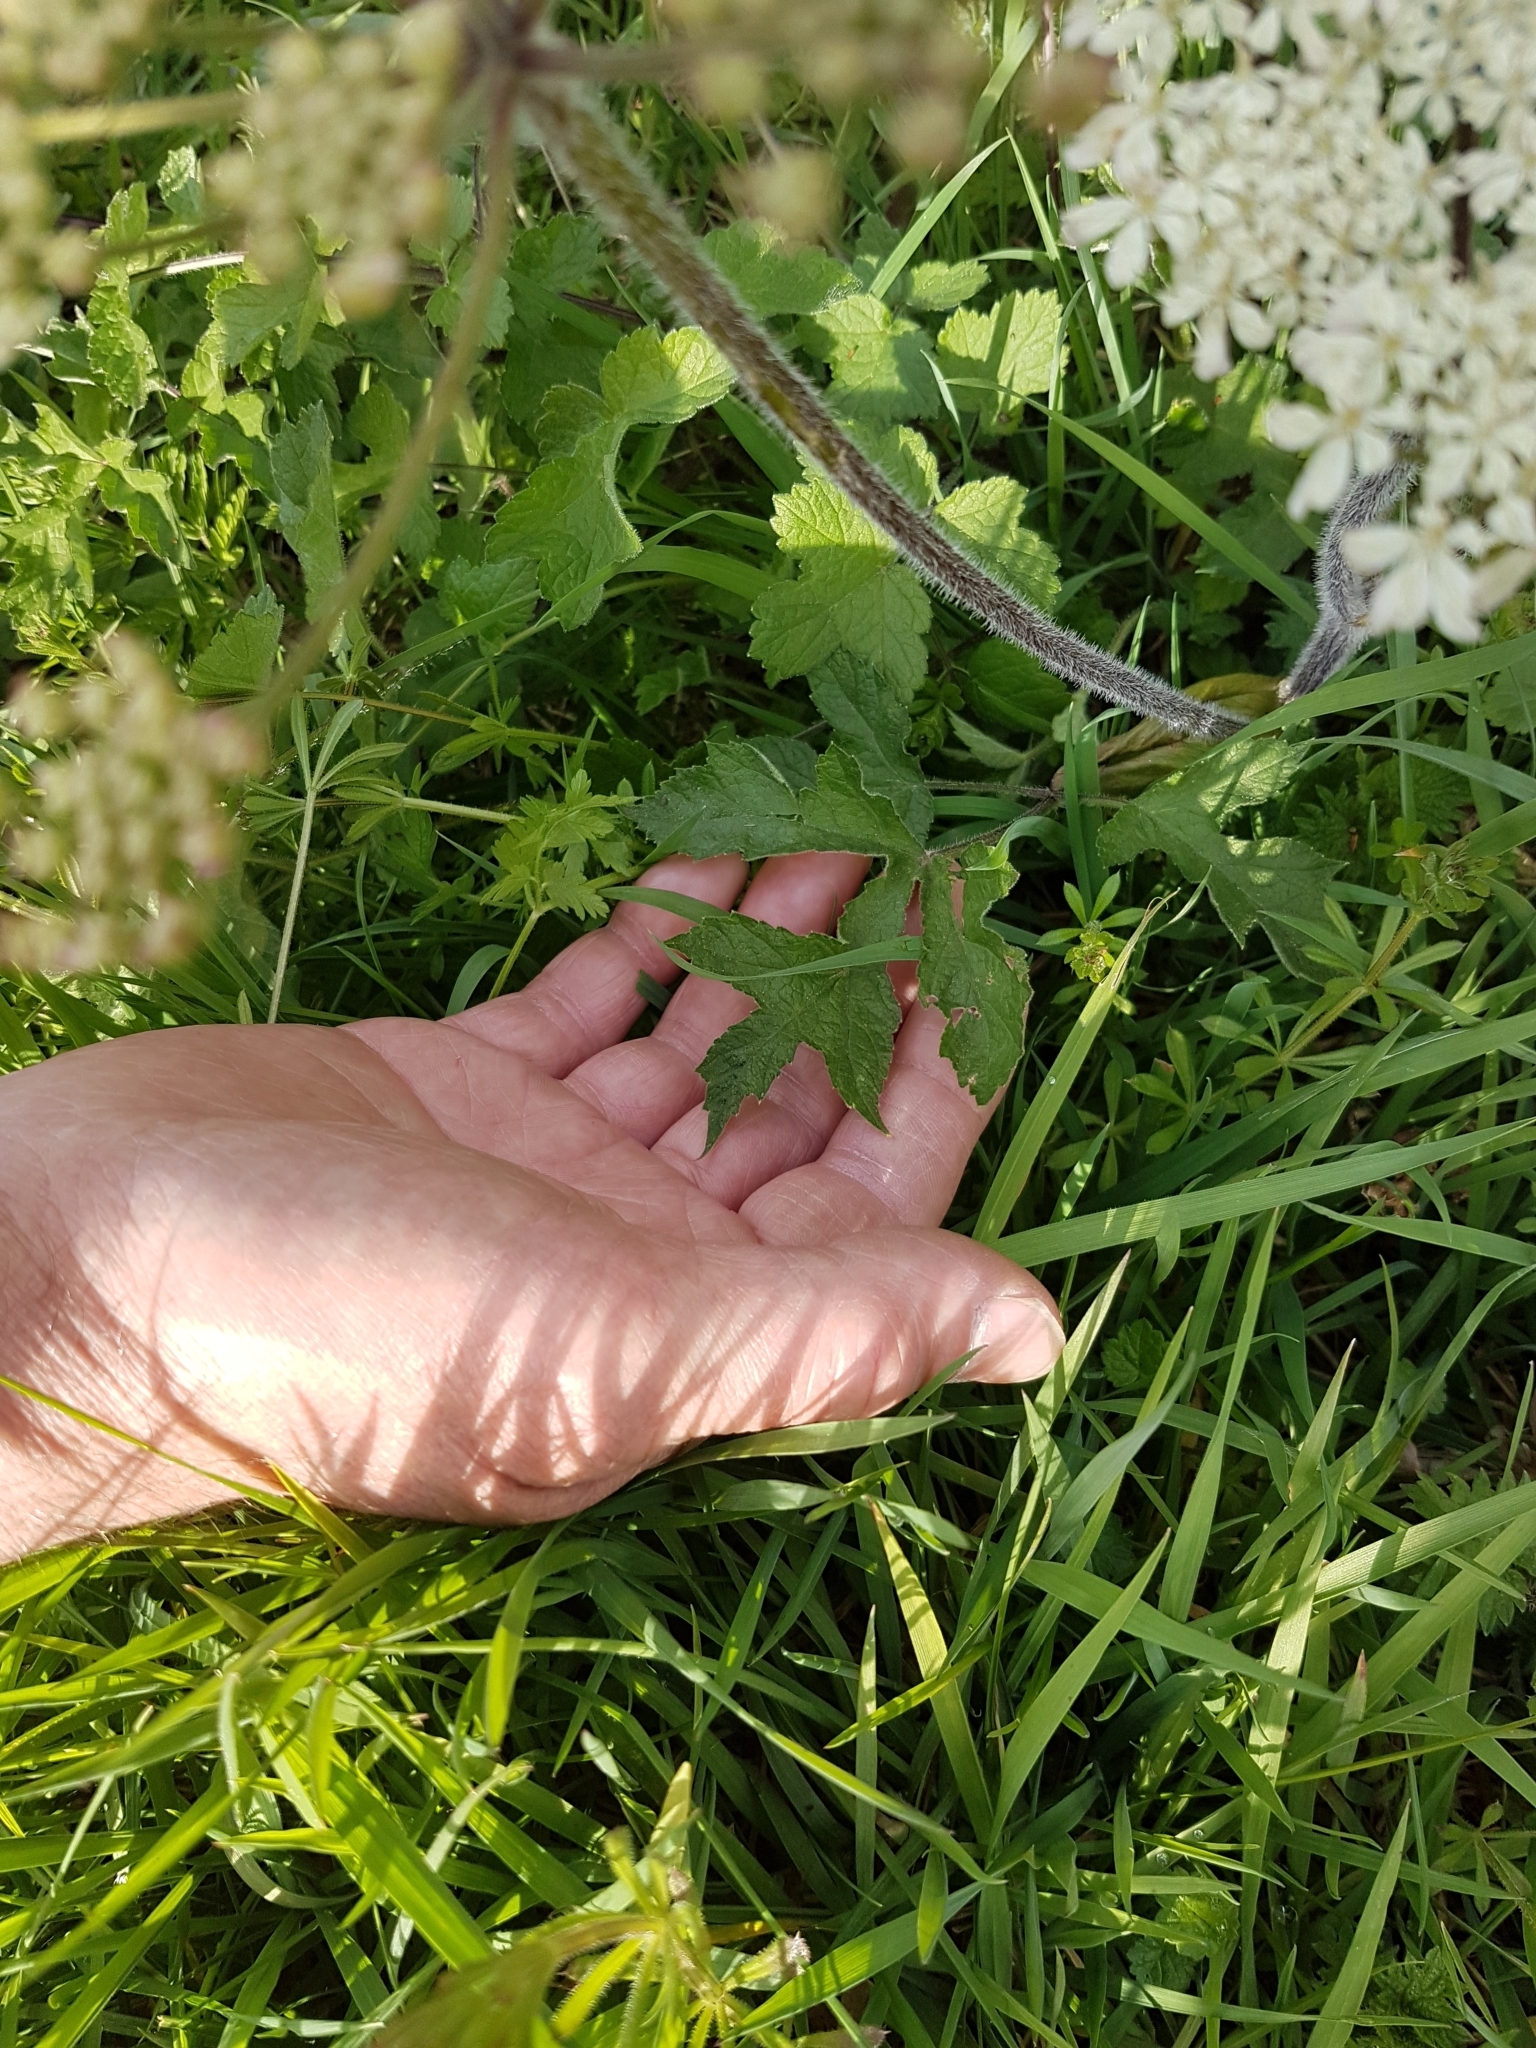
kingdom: Plantae
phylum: Tracheophyta
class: Magnoliopsida
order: Apiales
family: Apiaceae
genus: Heracleum
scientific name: Heracleum sphondylium
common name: Hogweed
